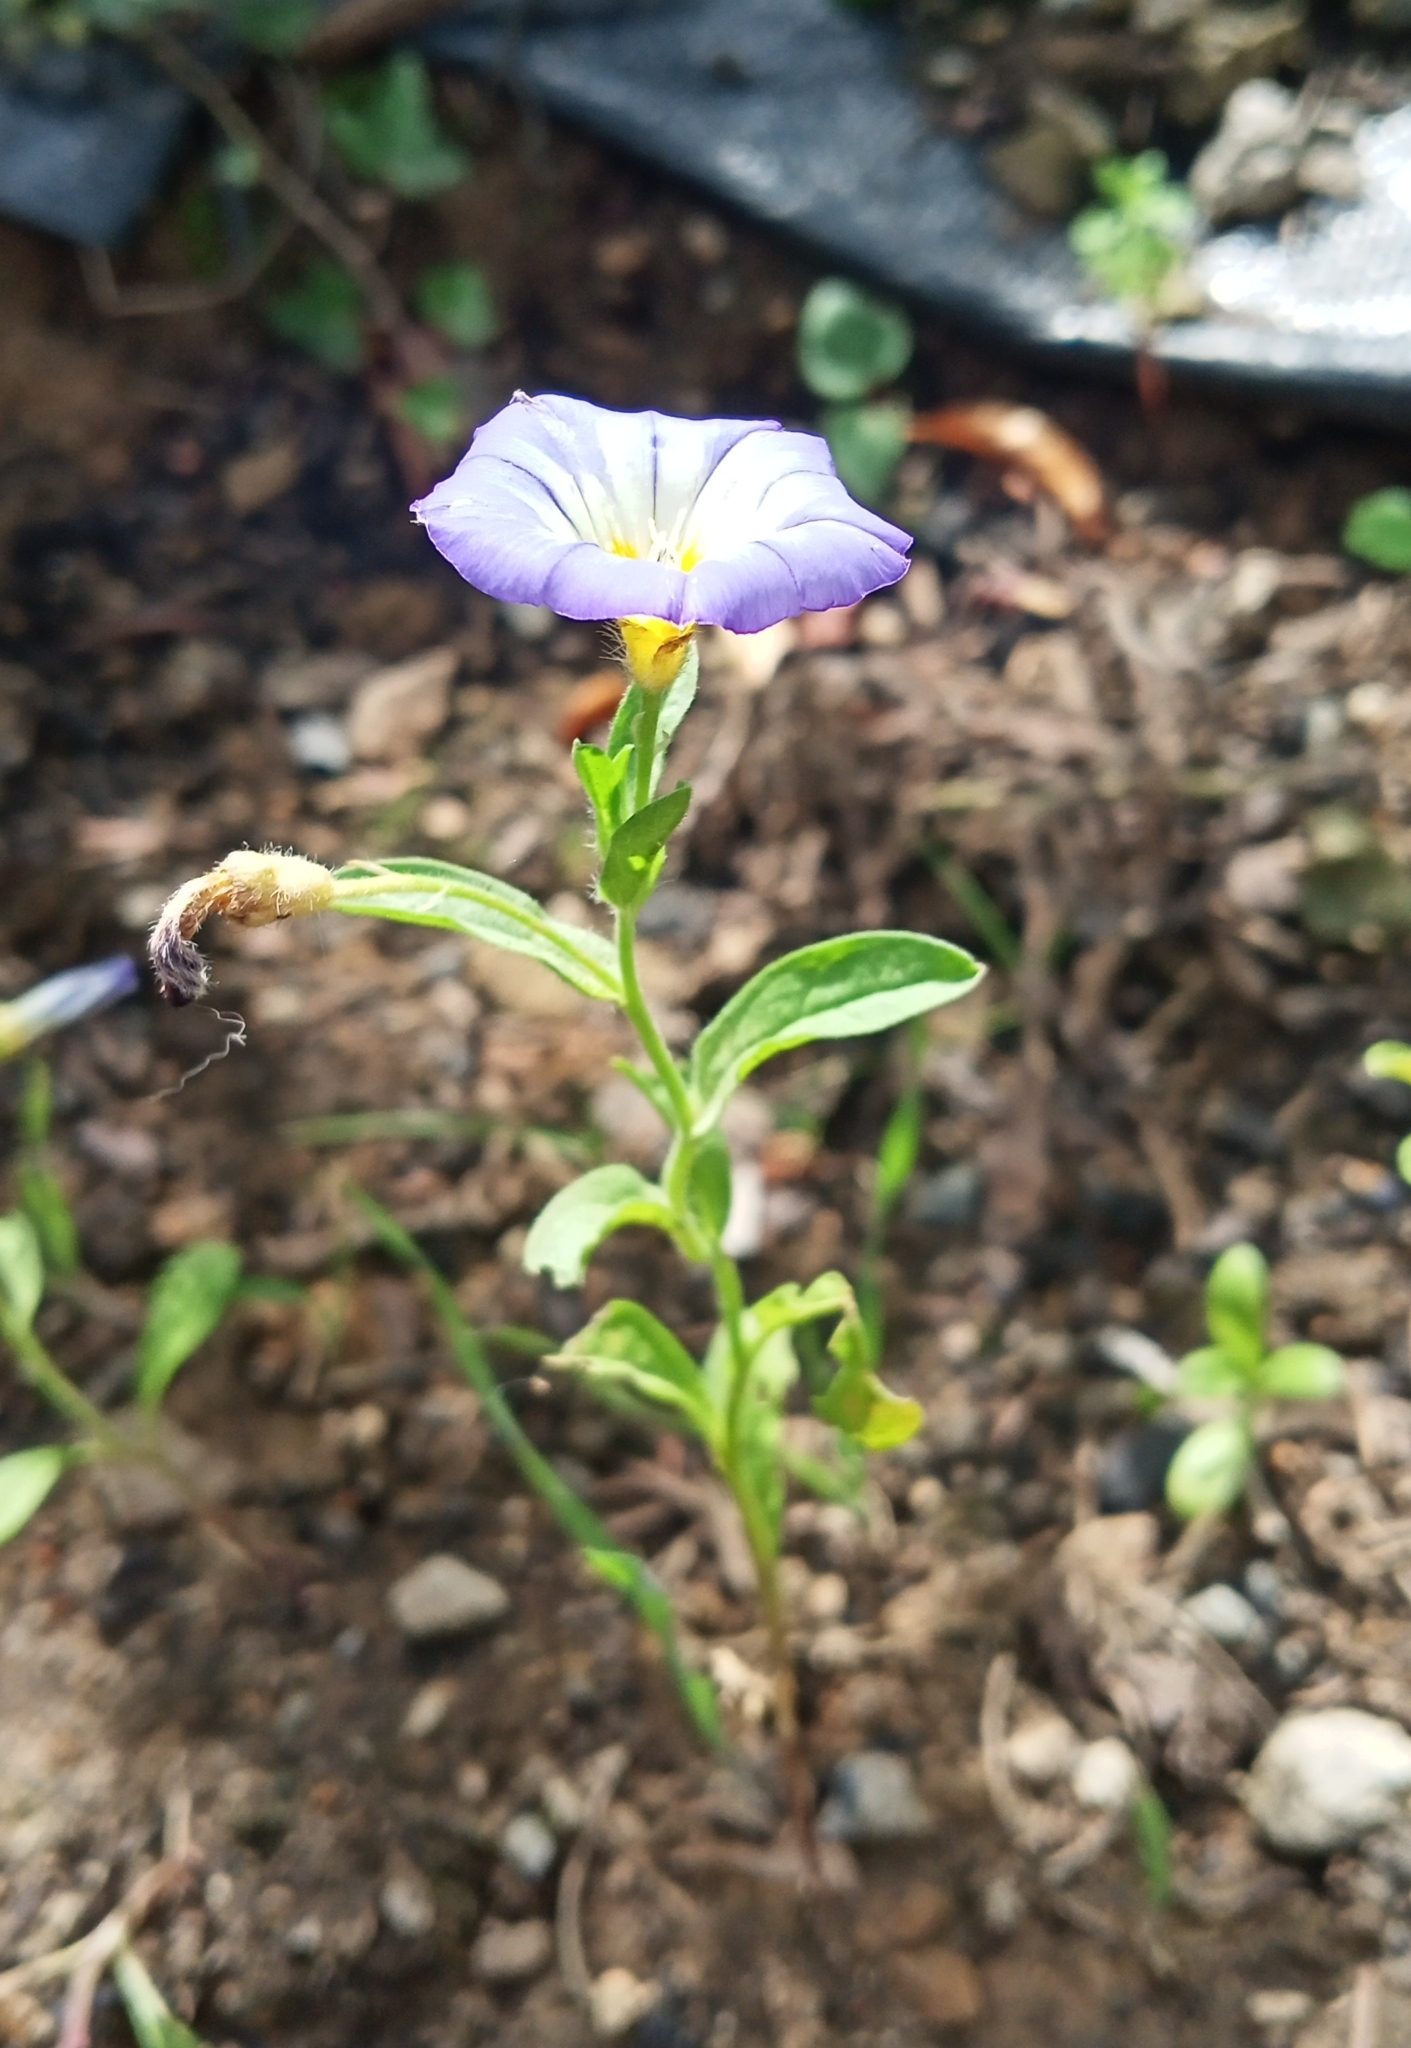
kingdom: Plantae
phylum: Tracheophyta
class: Magnoliopsida
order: Solanales
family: Convolvulaceae
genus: Convolvulus
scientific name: Convolvulus tricolor
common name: Dwarf morning-glory
